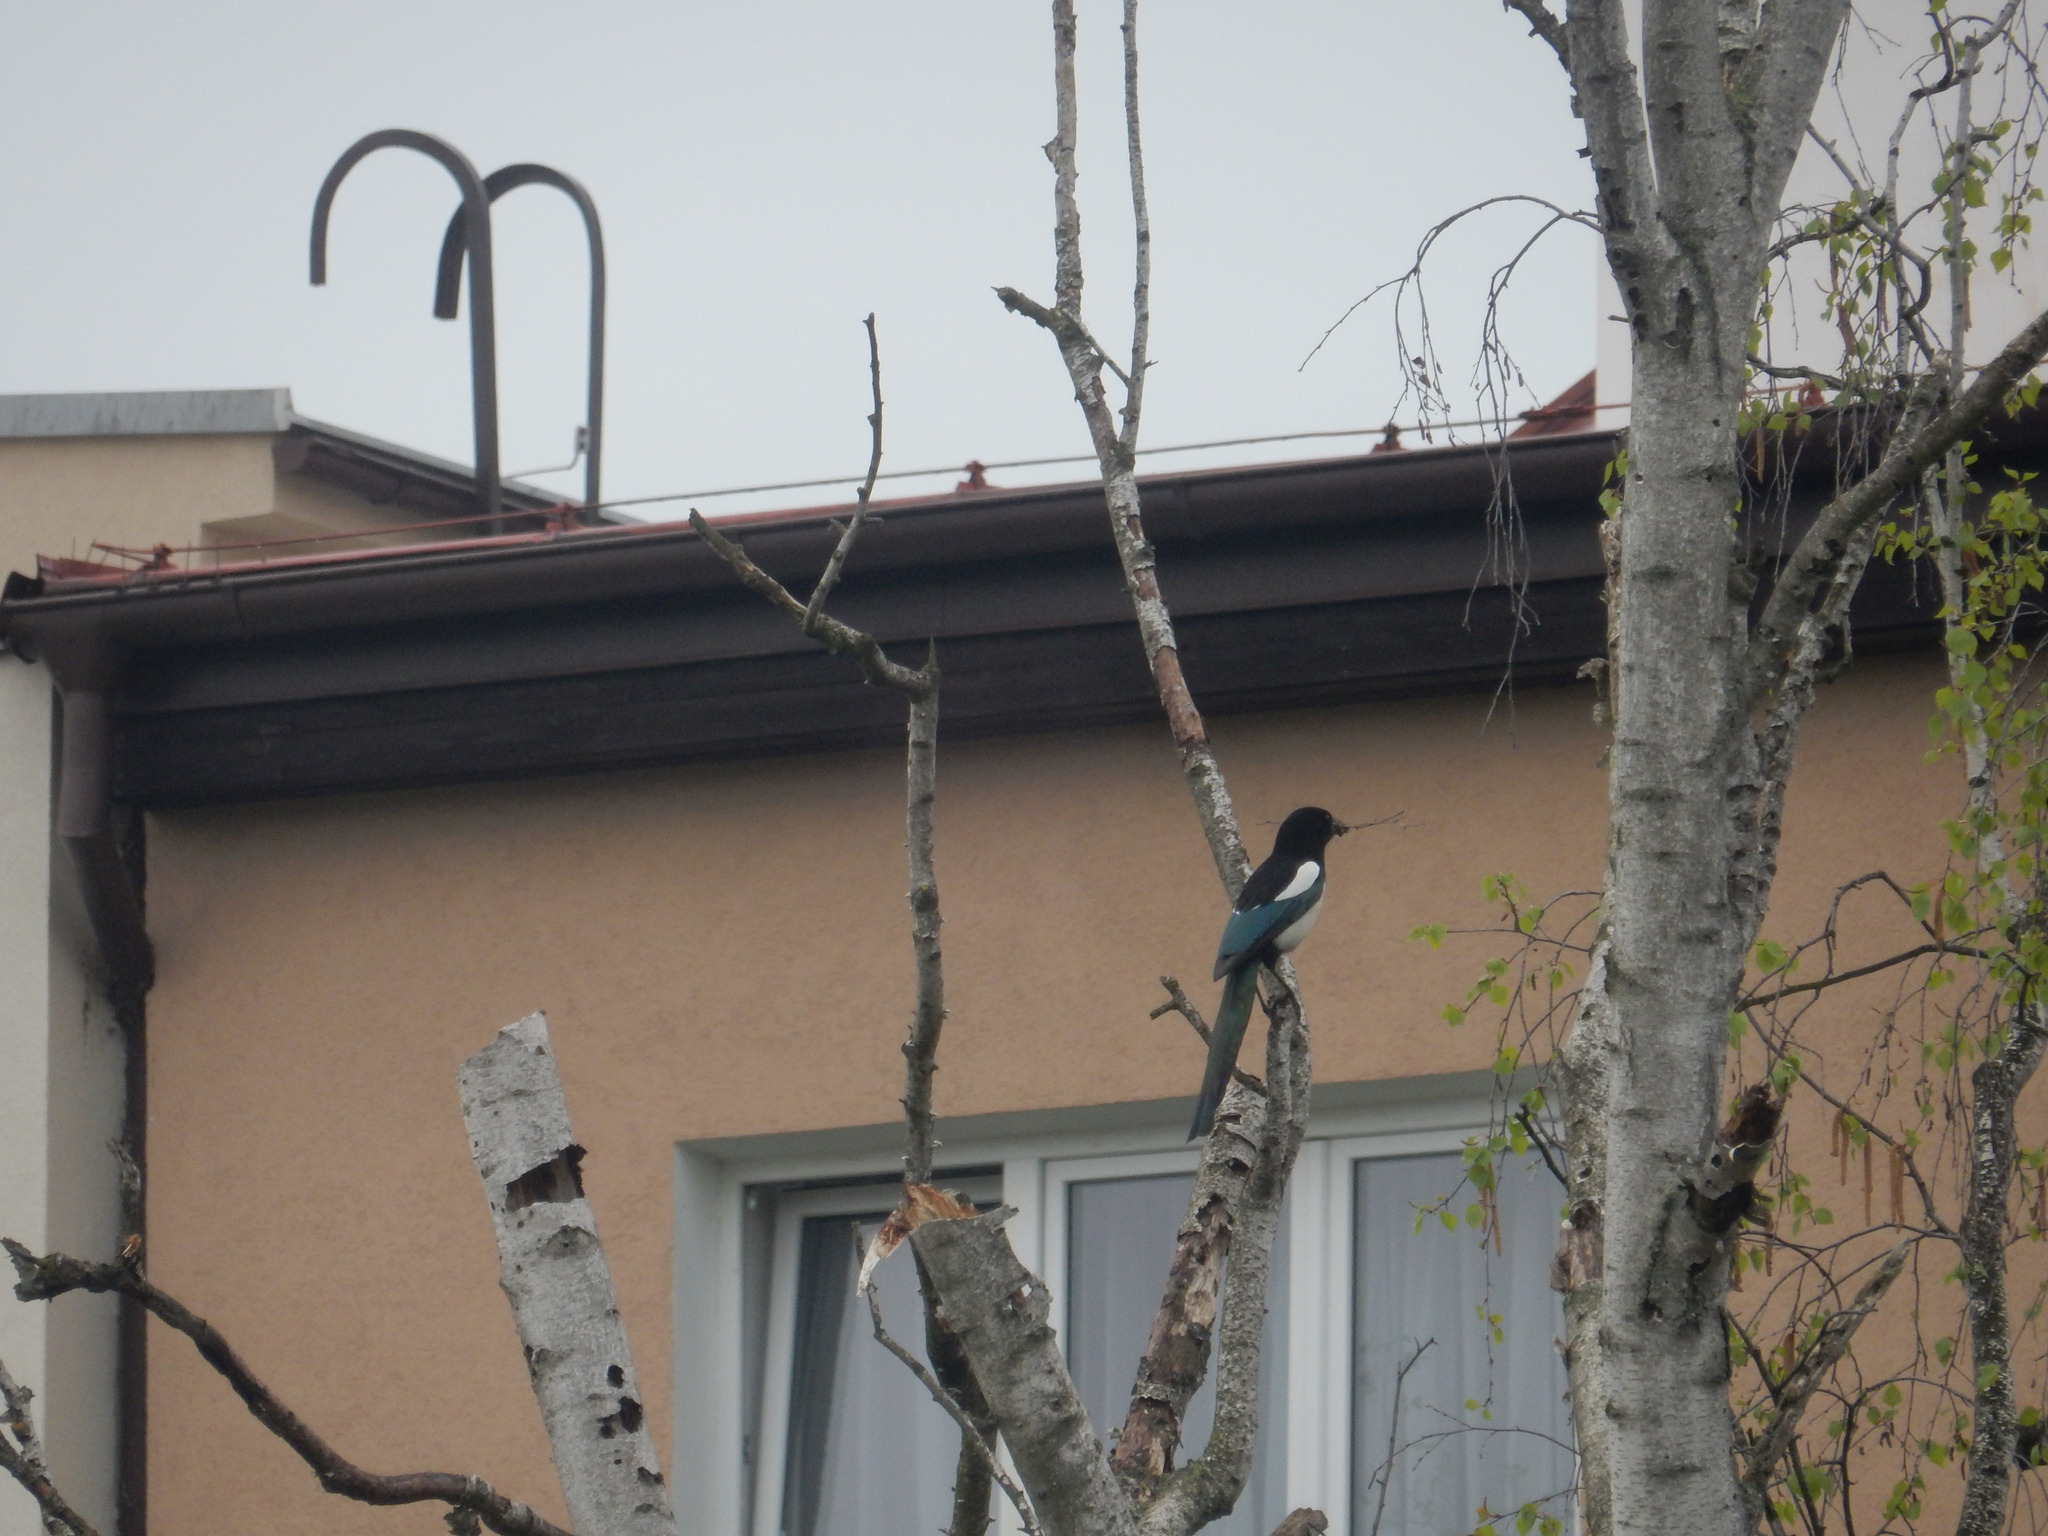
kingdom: Animalia
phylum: Chordata
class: Aves
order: Passeriformes
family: Corvidae
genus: Pica
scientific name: Pica pica
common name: Eurasian magpie
